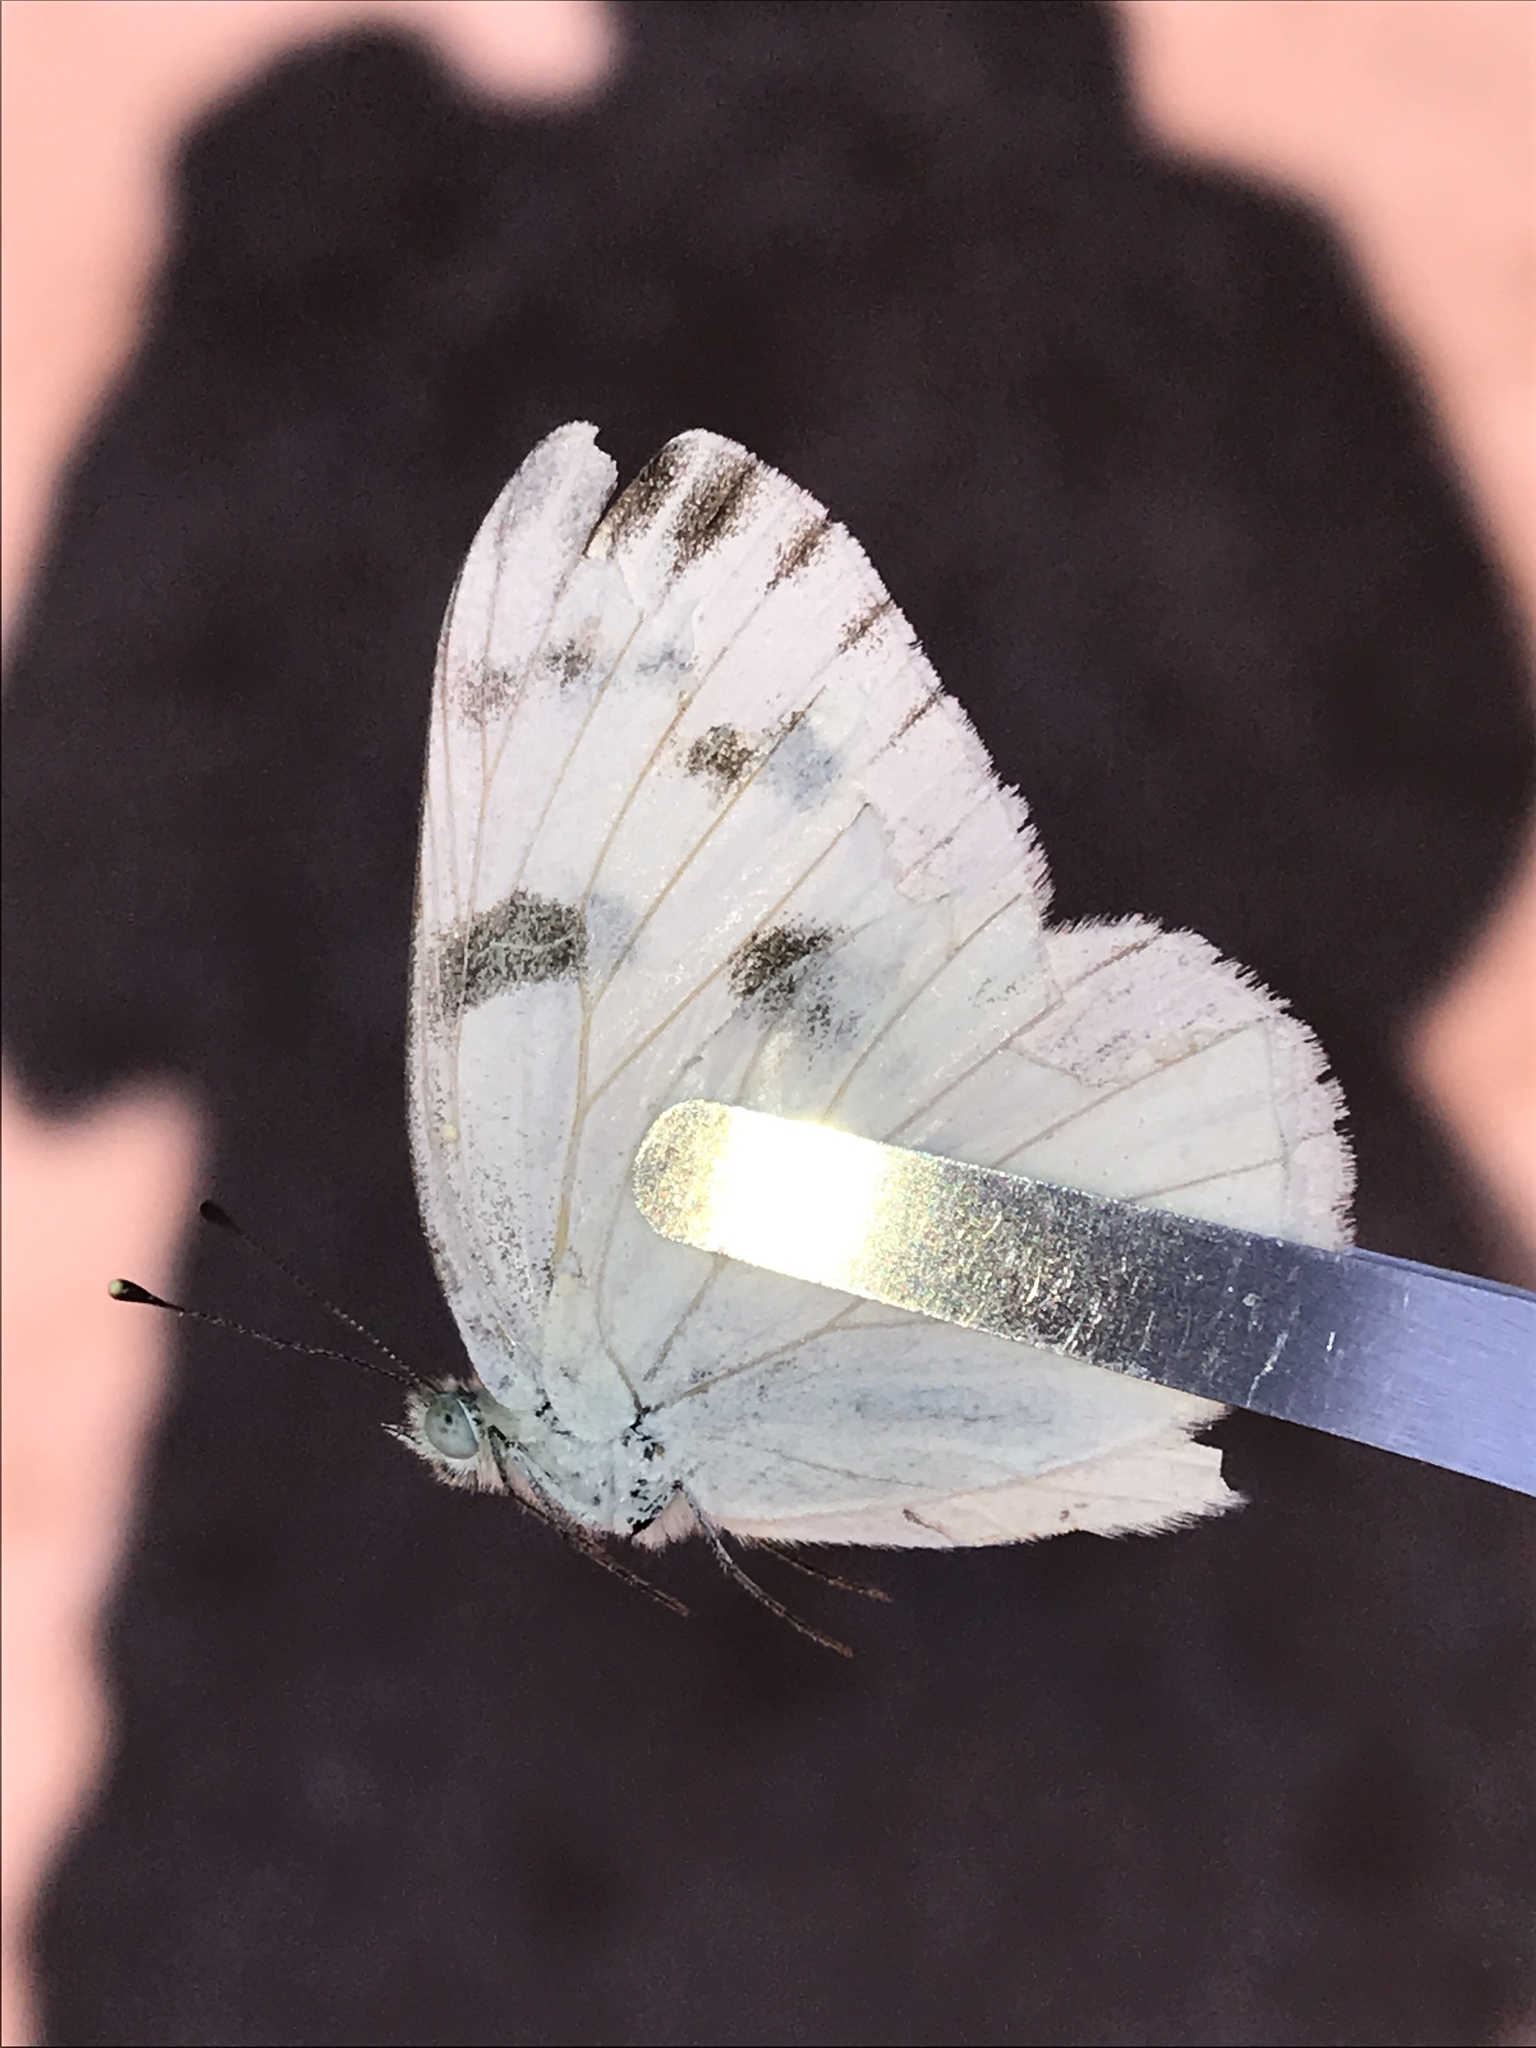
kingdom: Animalia
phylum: Arthropoda
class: Insecta
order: Lepidoptera
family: Pieridae
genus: Pontia
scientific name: Pontia protodice
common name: Checkered white
